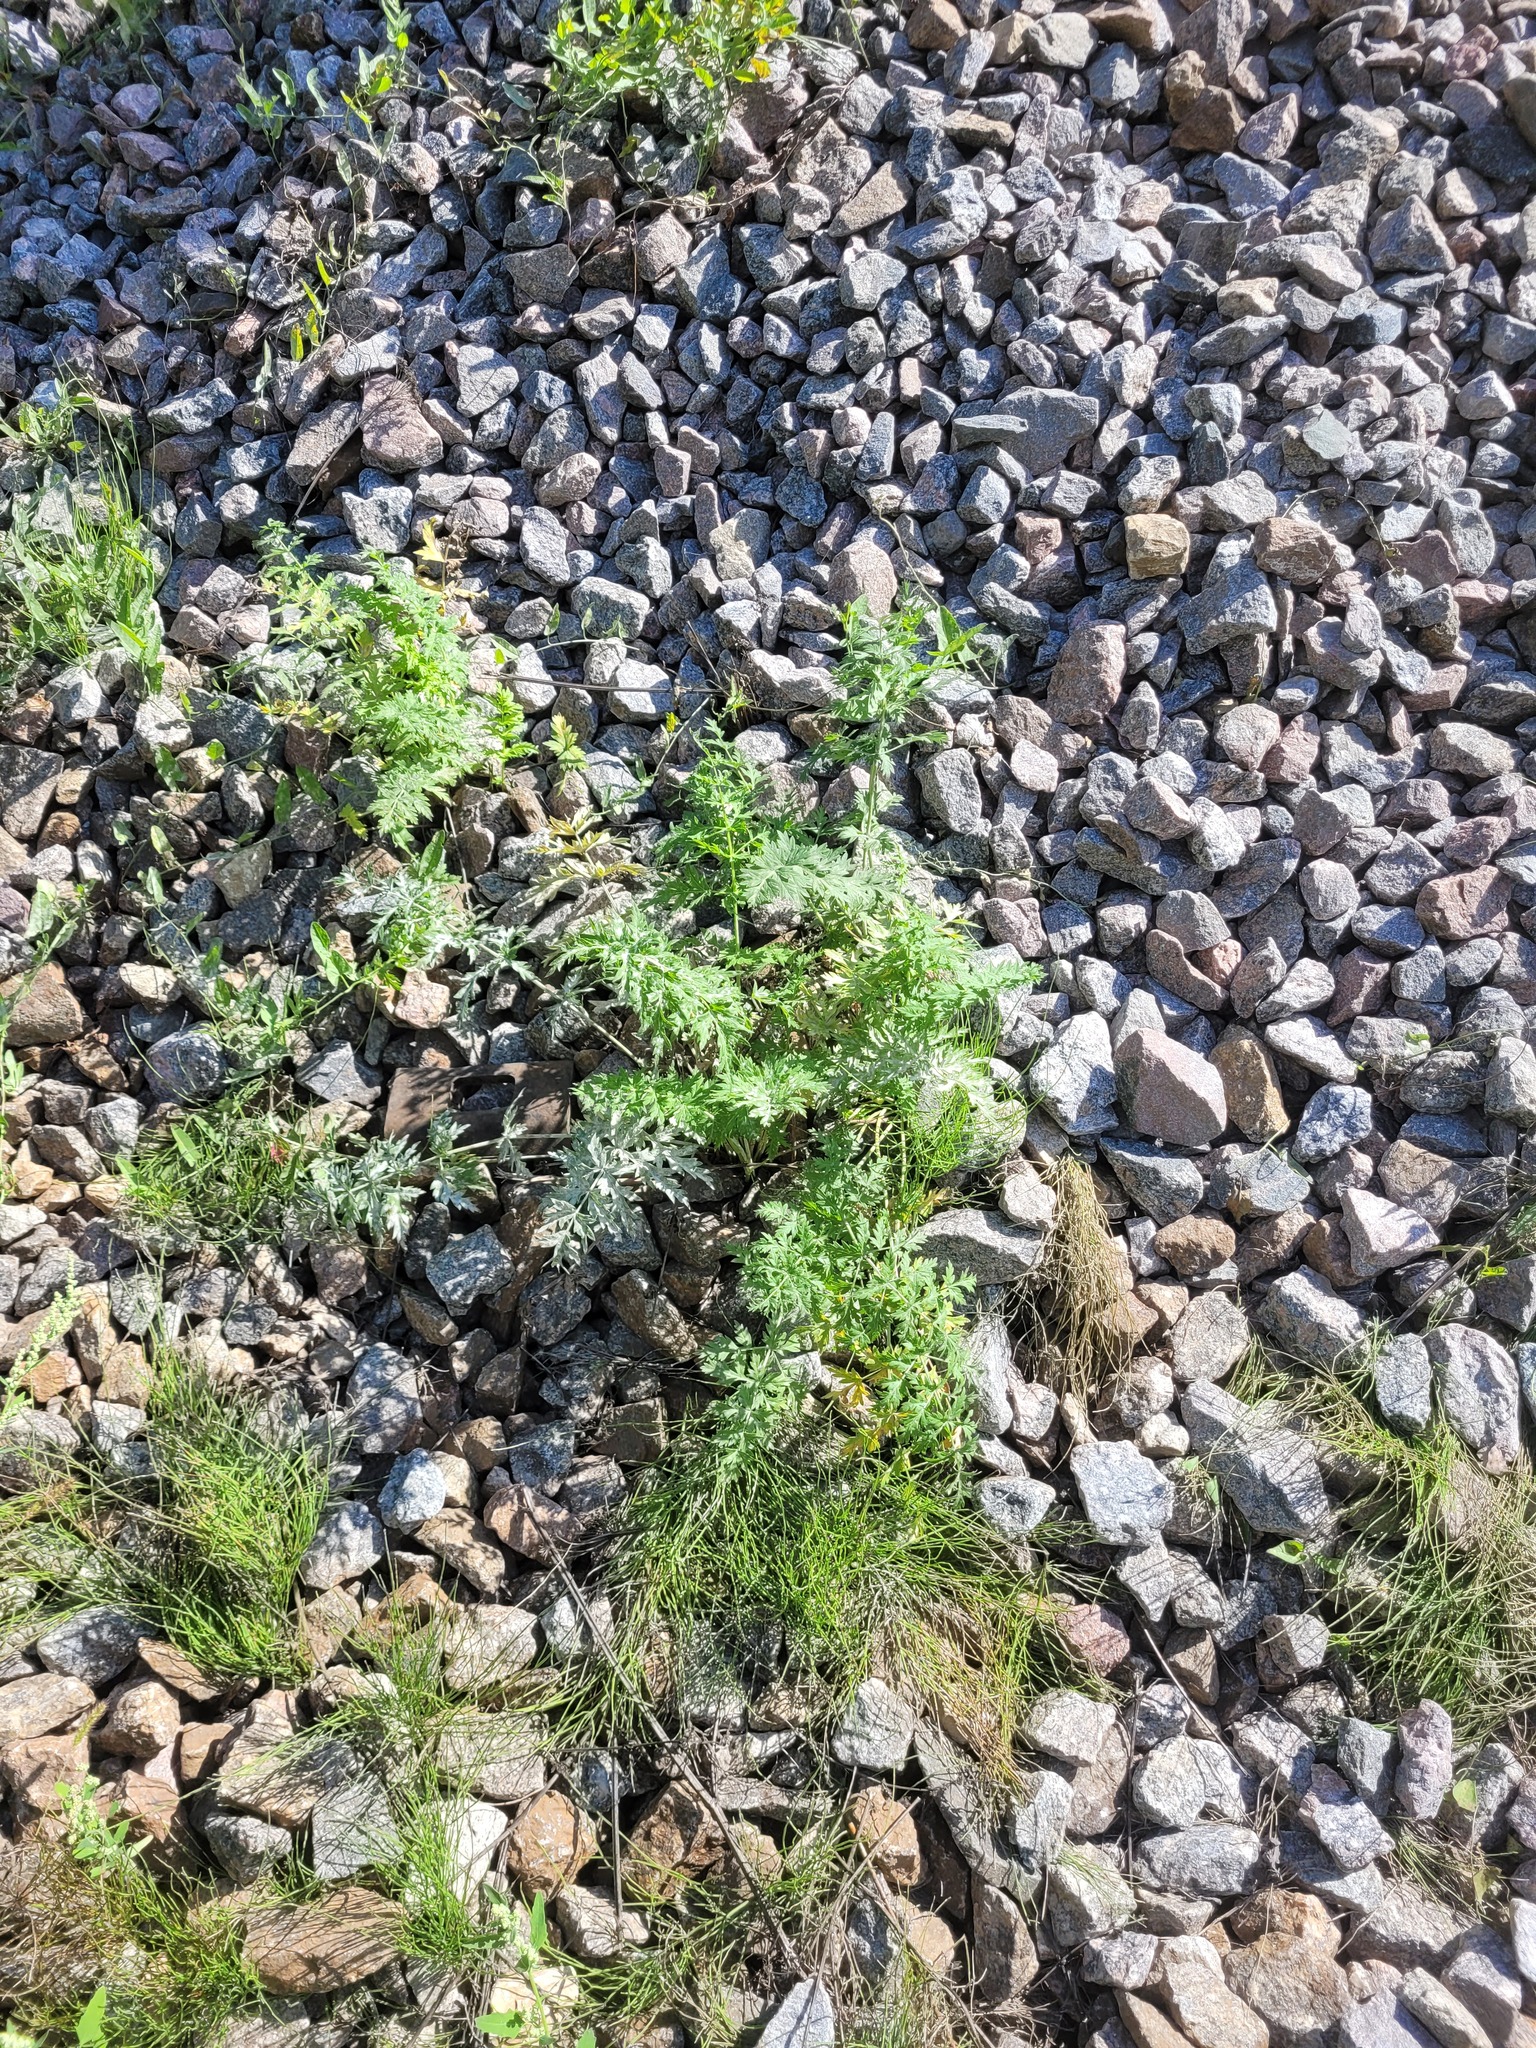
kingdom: Plantae
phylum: Tracheophyta
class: Magnoliopsida
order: Apiales
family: Apiaceae
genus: Seseli
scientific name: Seseli libanotis
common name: Mooncarrot
